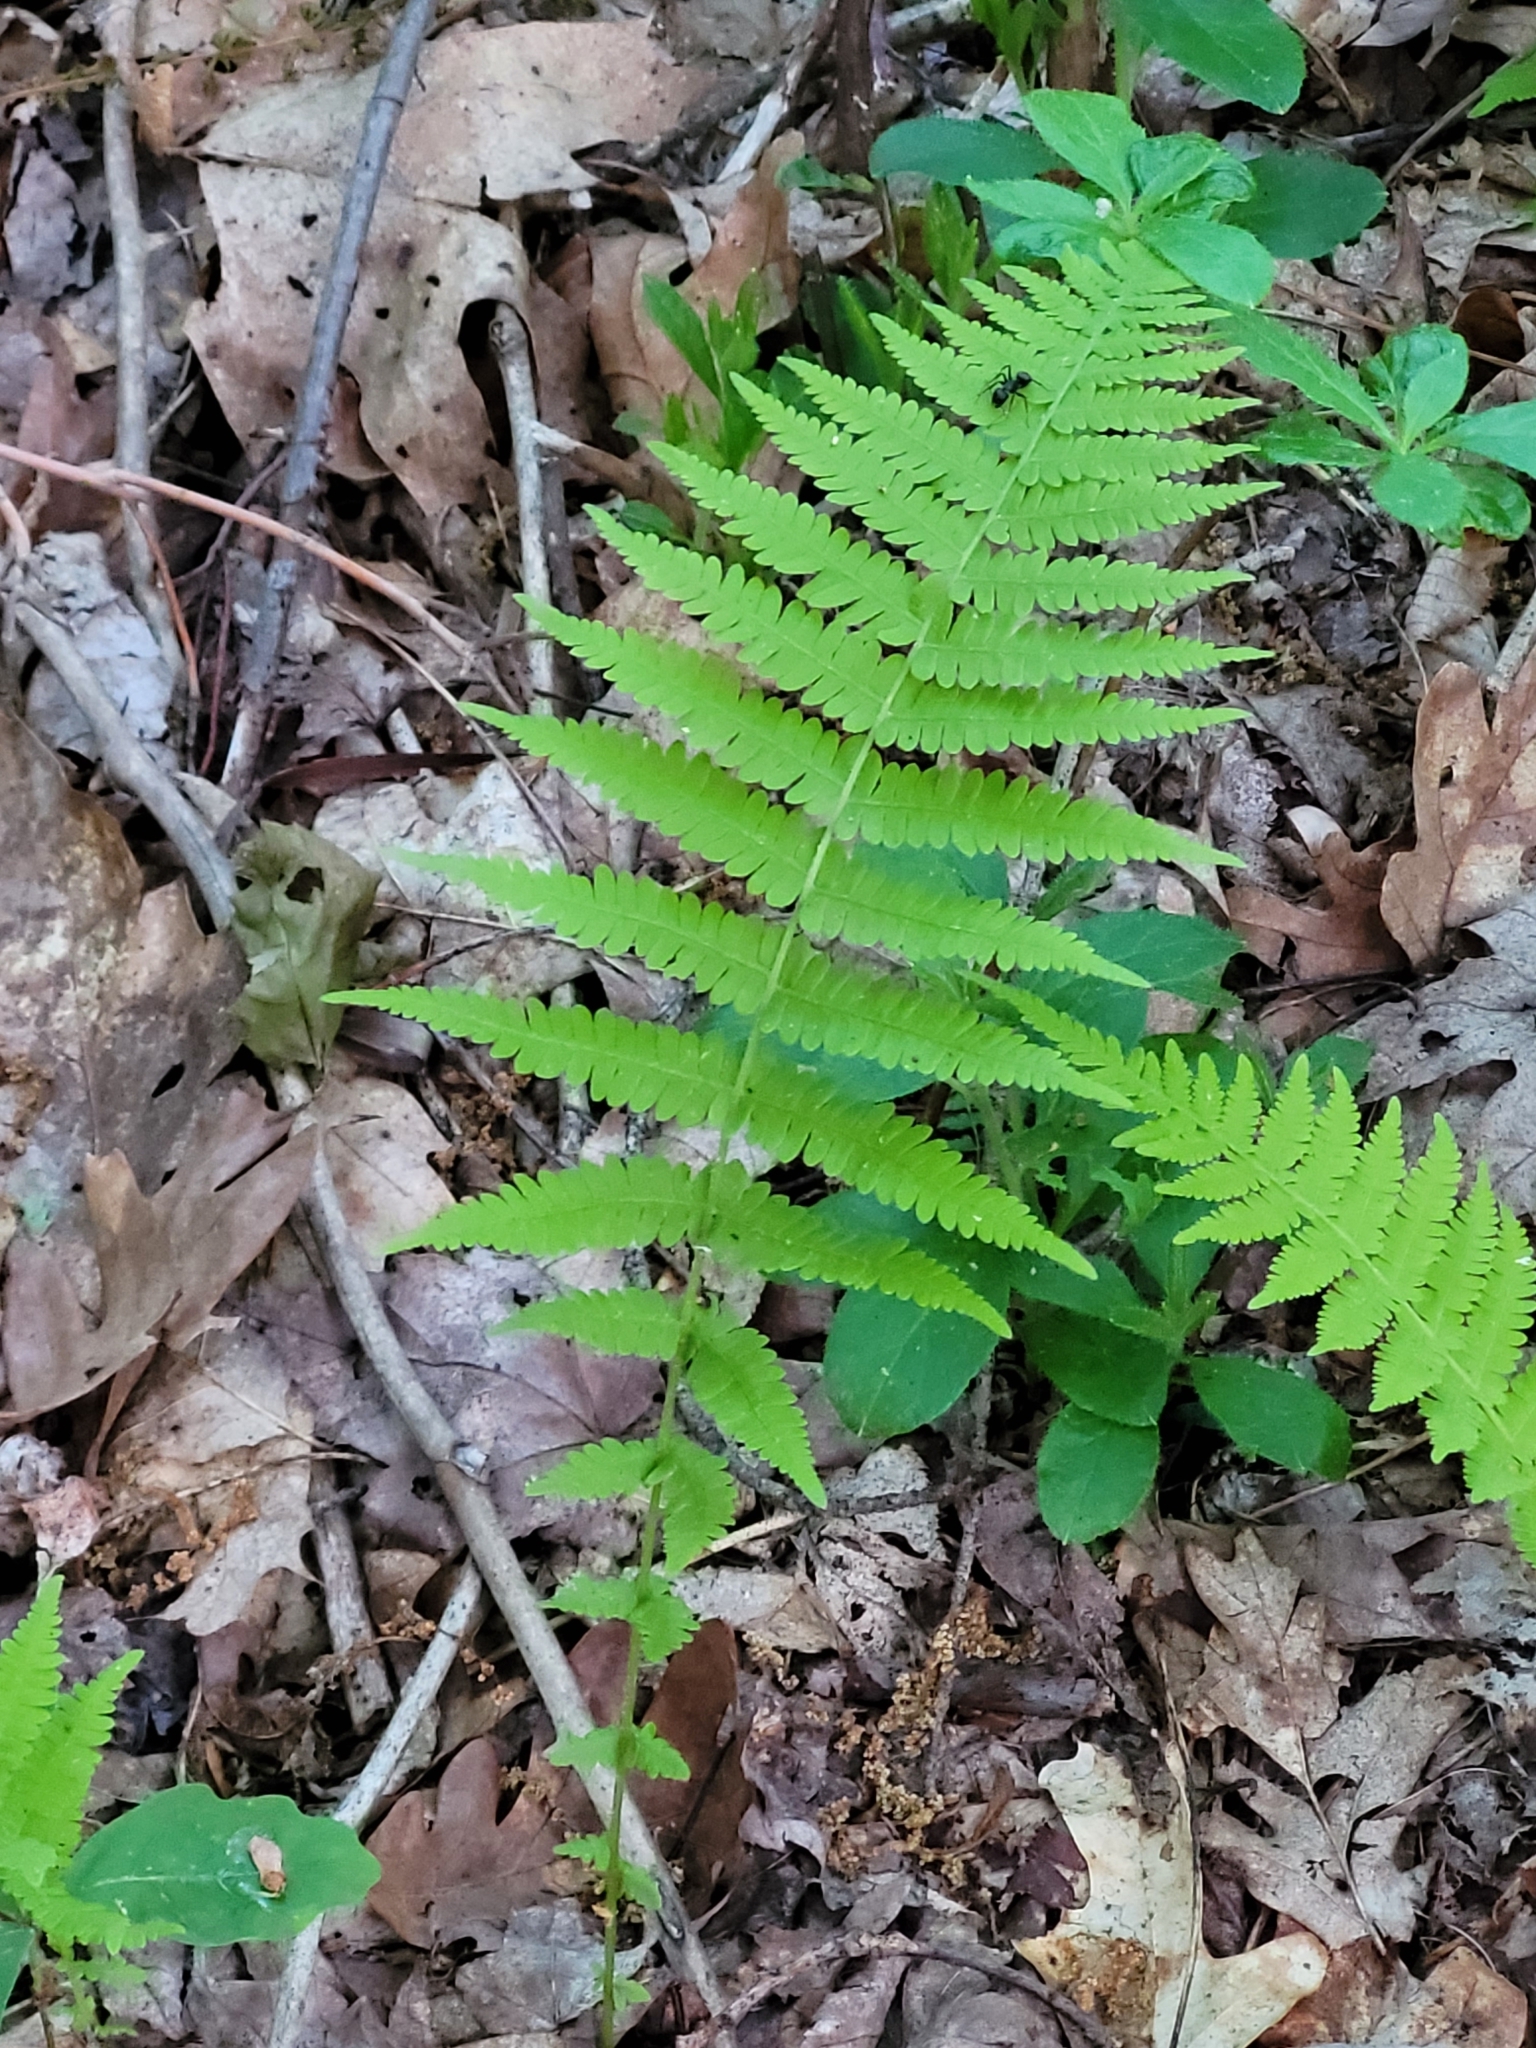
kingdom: Plantae
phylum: Tracheophyta
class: Polypodiopsida
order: Polypodiales
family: Thelypteridaceae
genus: Amauropelta
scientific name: Amauropelta noveboracensis
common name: New york fern
